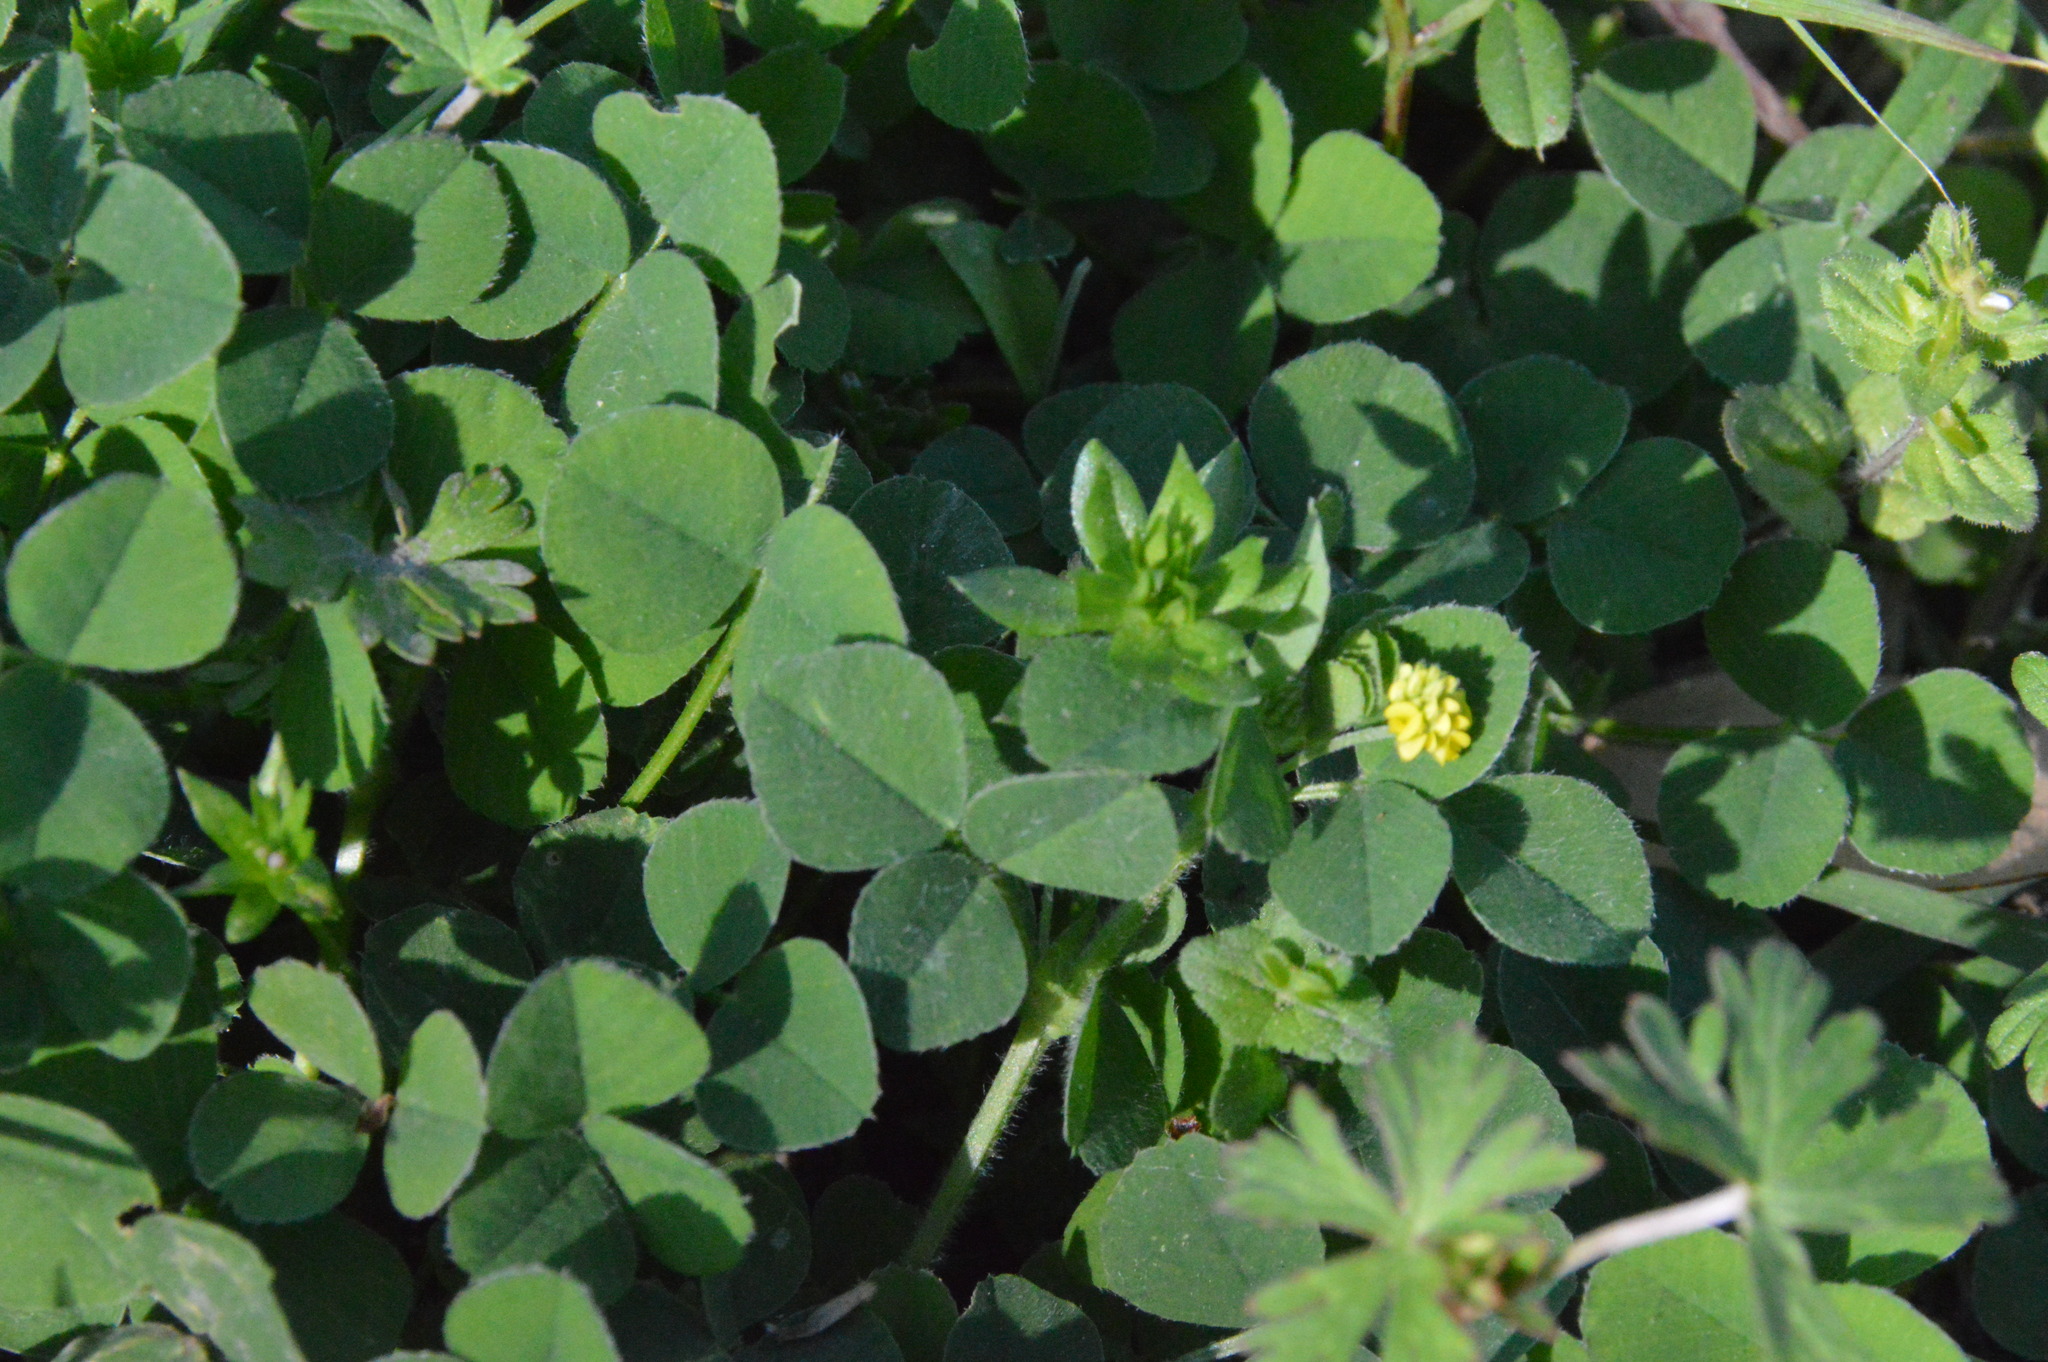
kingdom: Plantae
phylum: Tracheophyta
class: Magnoliopsida
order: Fabales
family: Fabaceae
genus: Medicago
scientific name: Medicago lupulina
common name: Black medick
